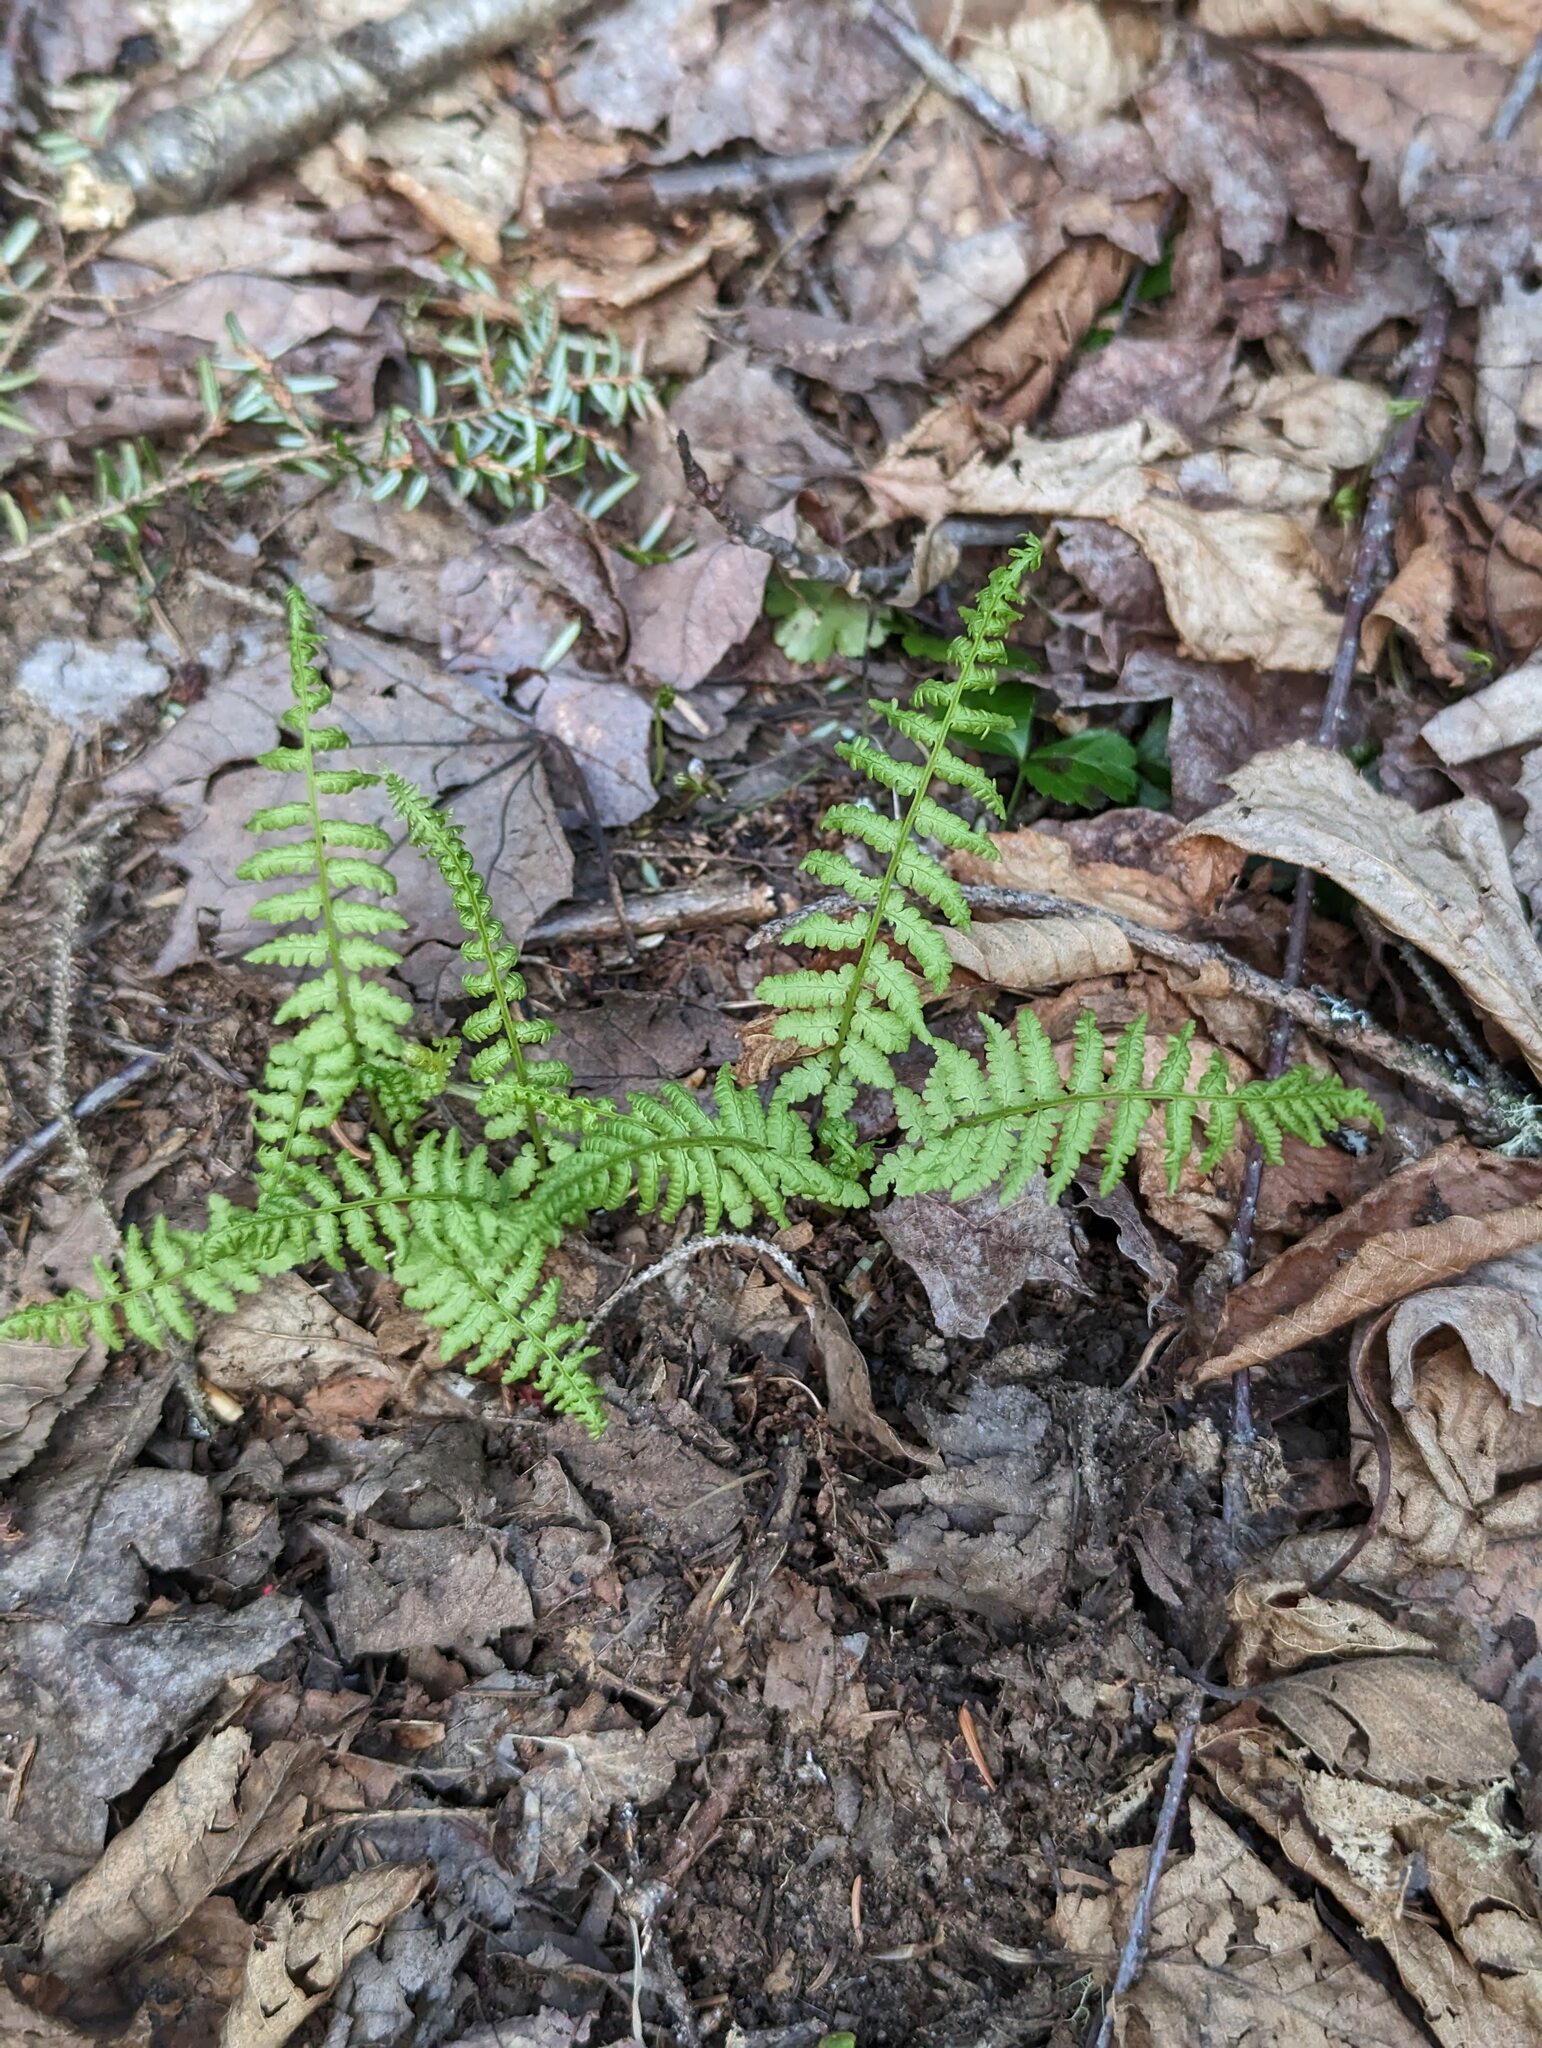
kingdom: Plantae
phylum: Tracheophyta
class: Polypodiopsida
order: Polypodiales
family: Athyriaceae
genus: Athyrium
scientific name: Athyrium angustum
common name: Northern lady fern
